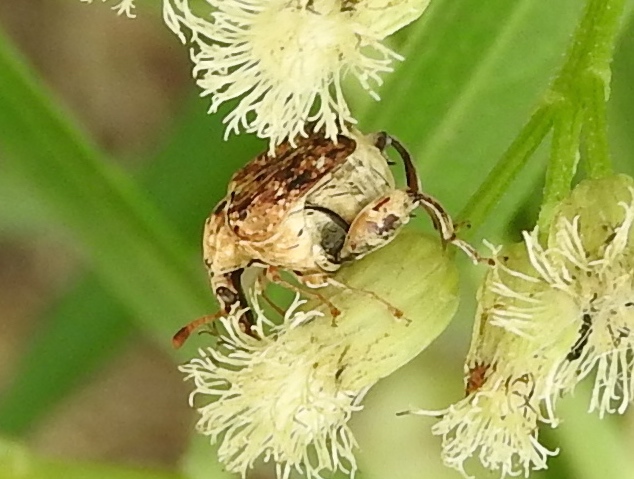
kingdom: Animalia
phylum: Arthropoda
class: Insecta
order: Coleoptera
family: Bruchidae
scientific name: Bruchidae
